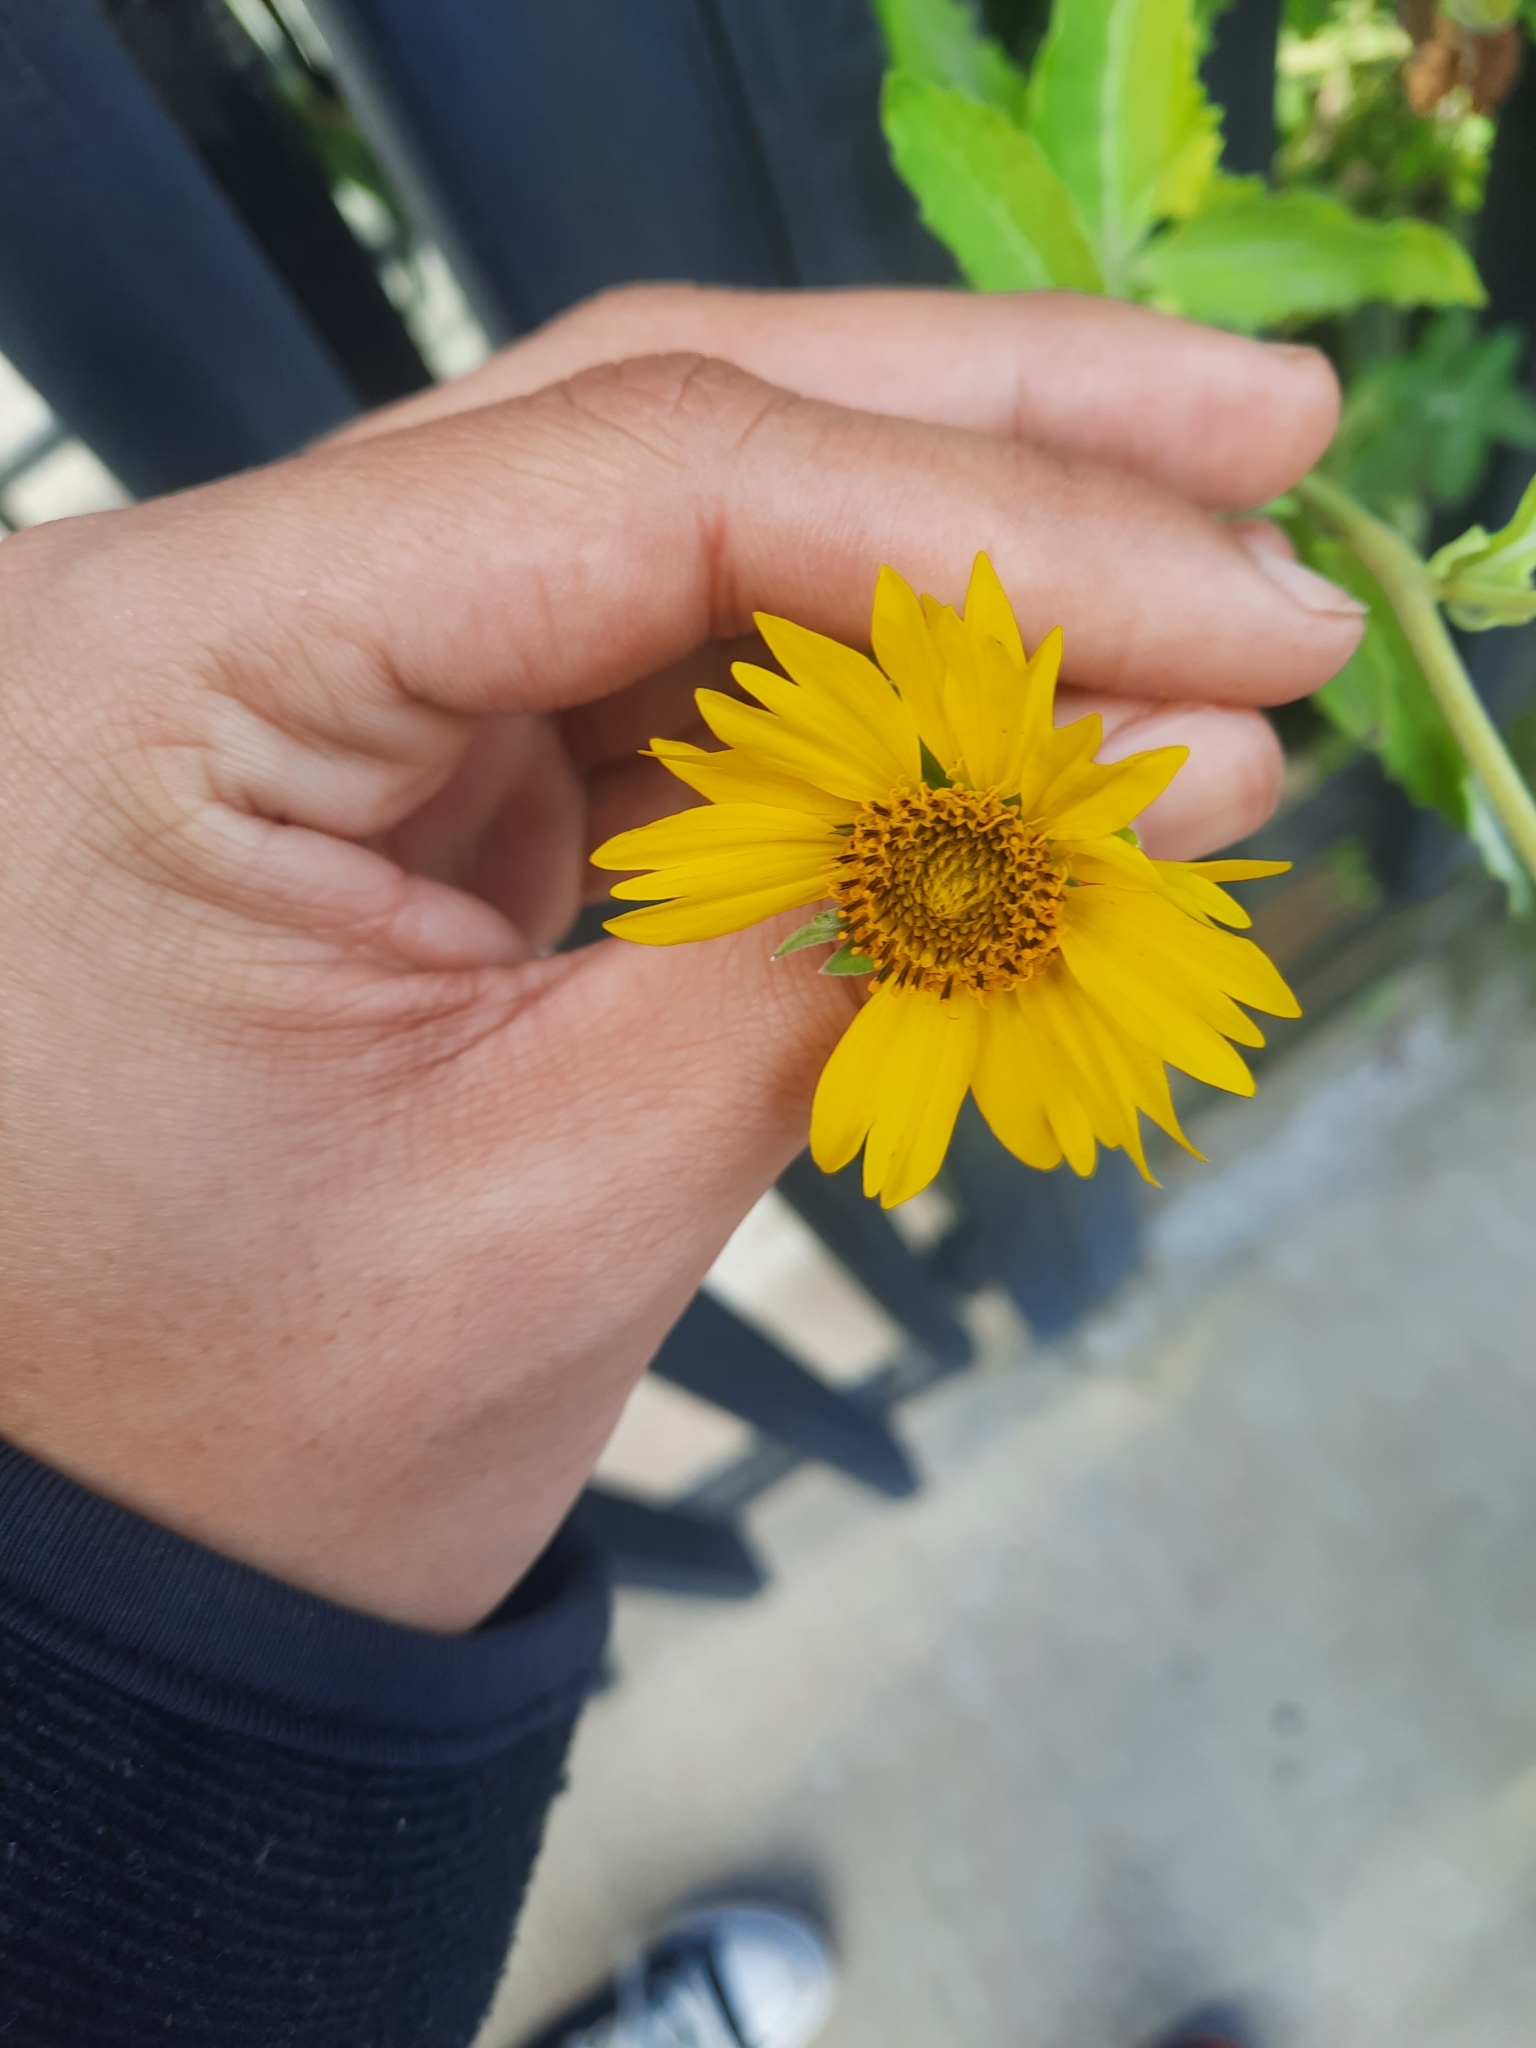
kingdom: Plantae
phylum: Tracheophyta
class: Magnoliopsida
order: Asterales
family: Asteraceae
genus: Verbesina
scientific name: Verbesina encelioides
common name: Golden crownbeard
